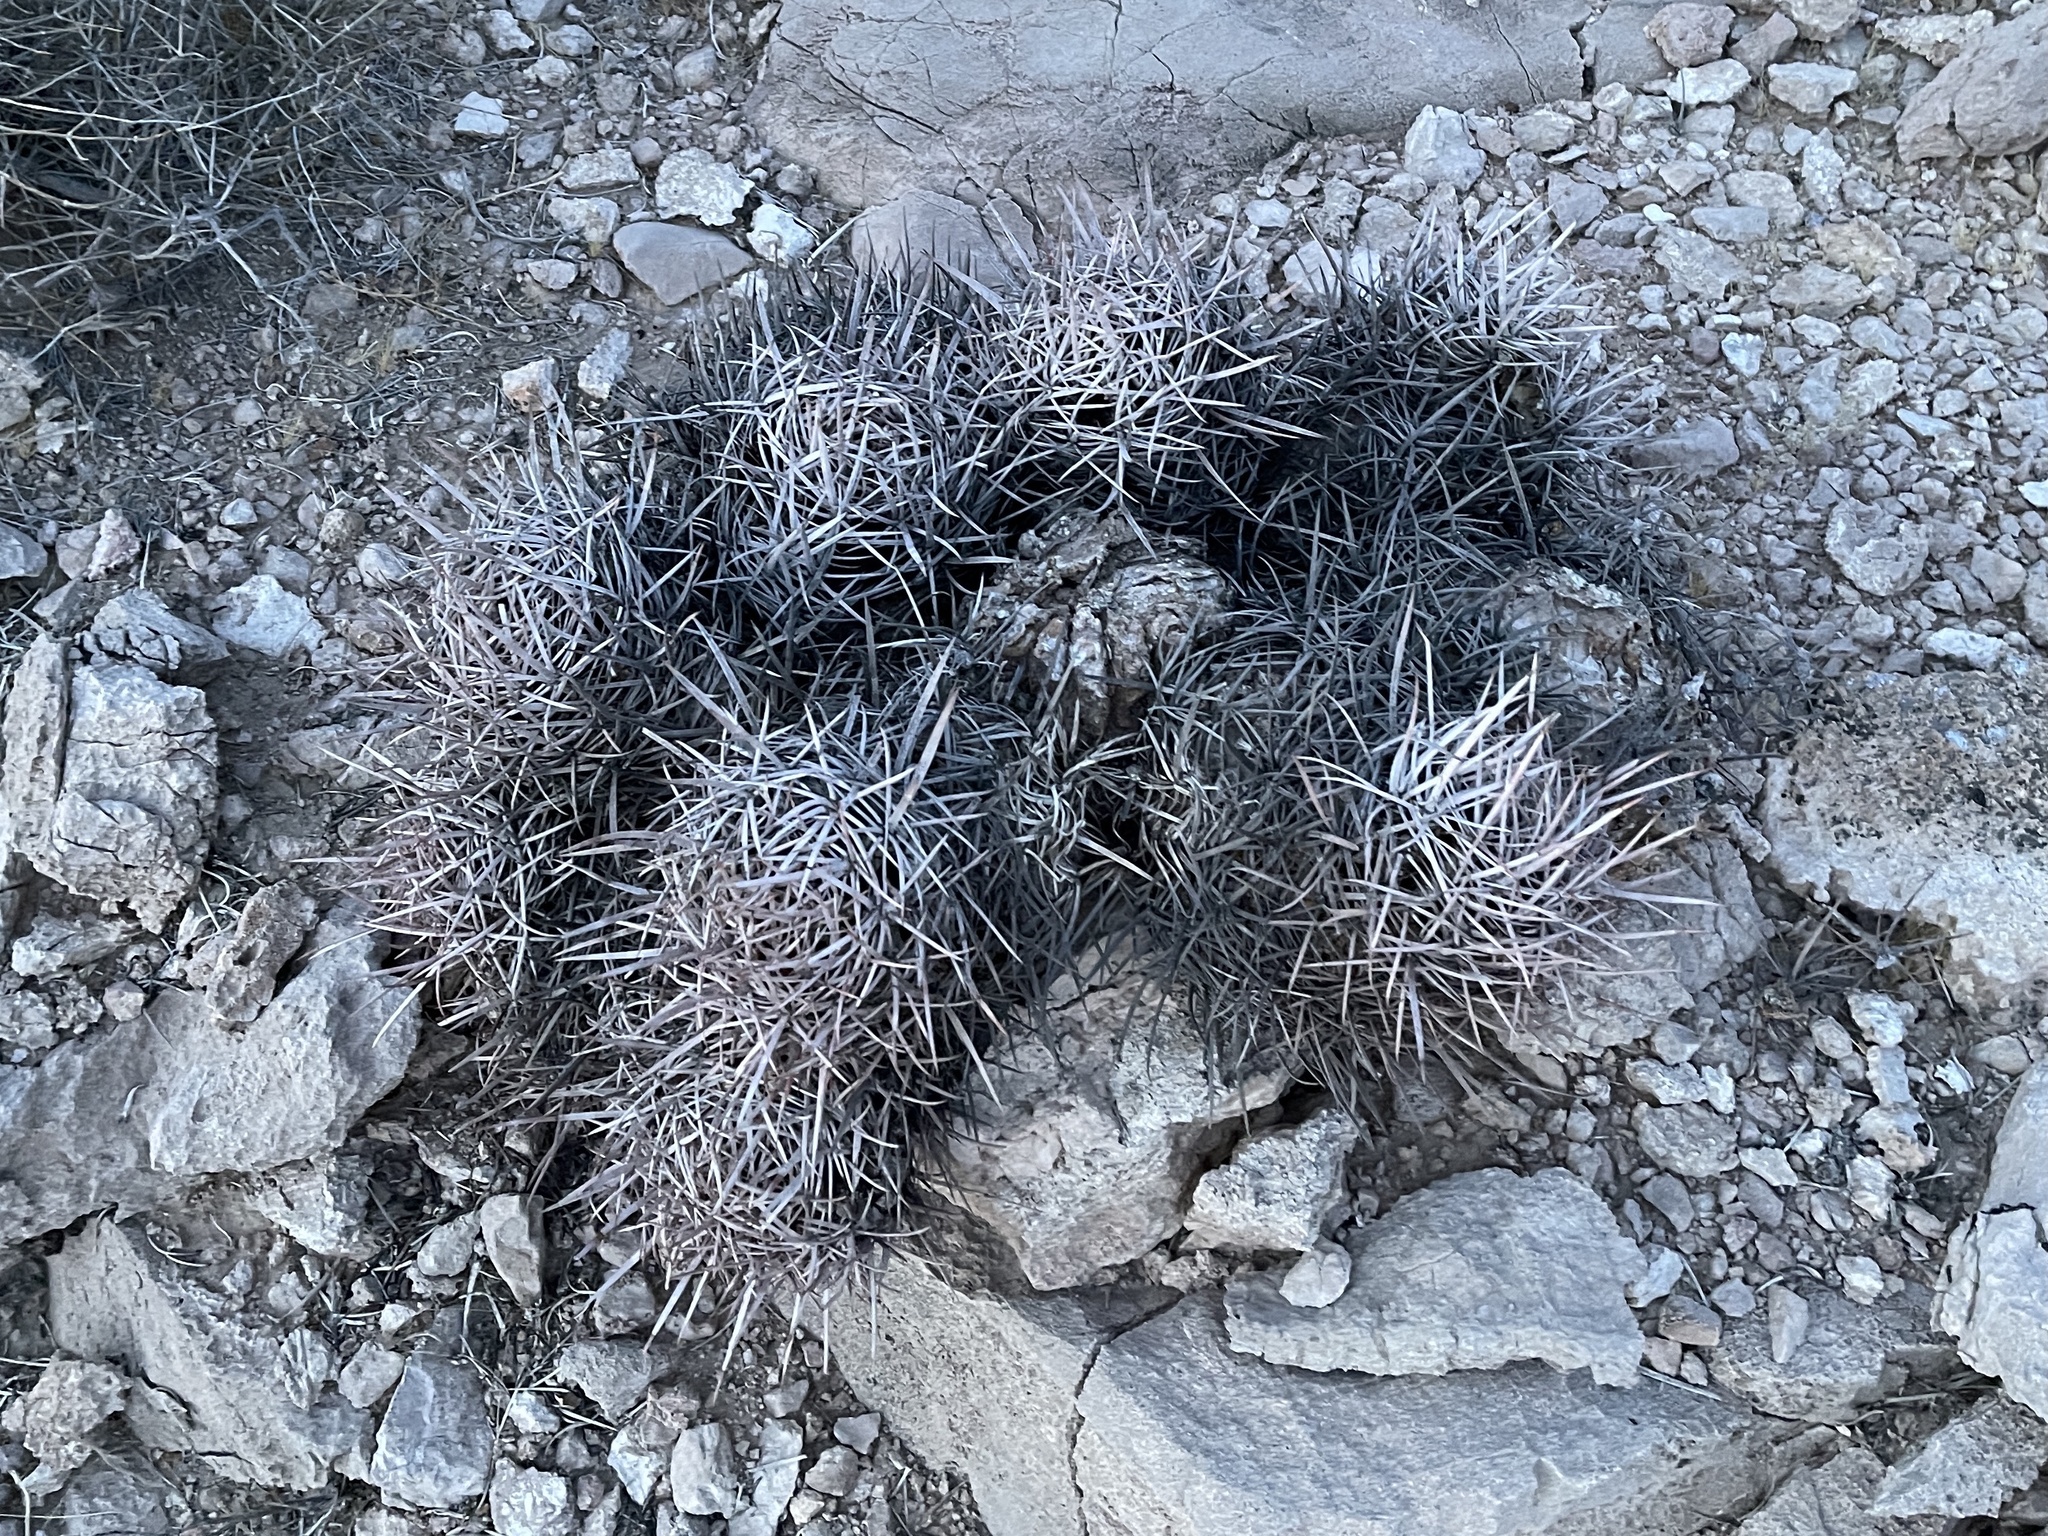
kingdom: Plantae
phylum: Tracheophyta
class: Magnoliopsida
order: Caryophyllales
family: Cactaceae
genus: Echinocactus
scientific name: Echinocactus polycephalus
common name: Cottontop cactus
